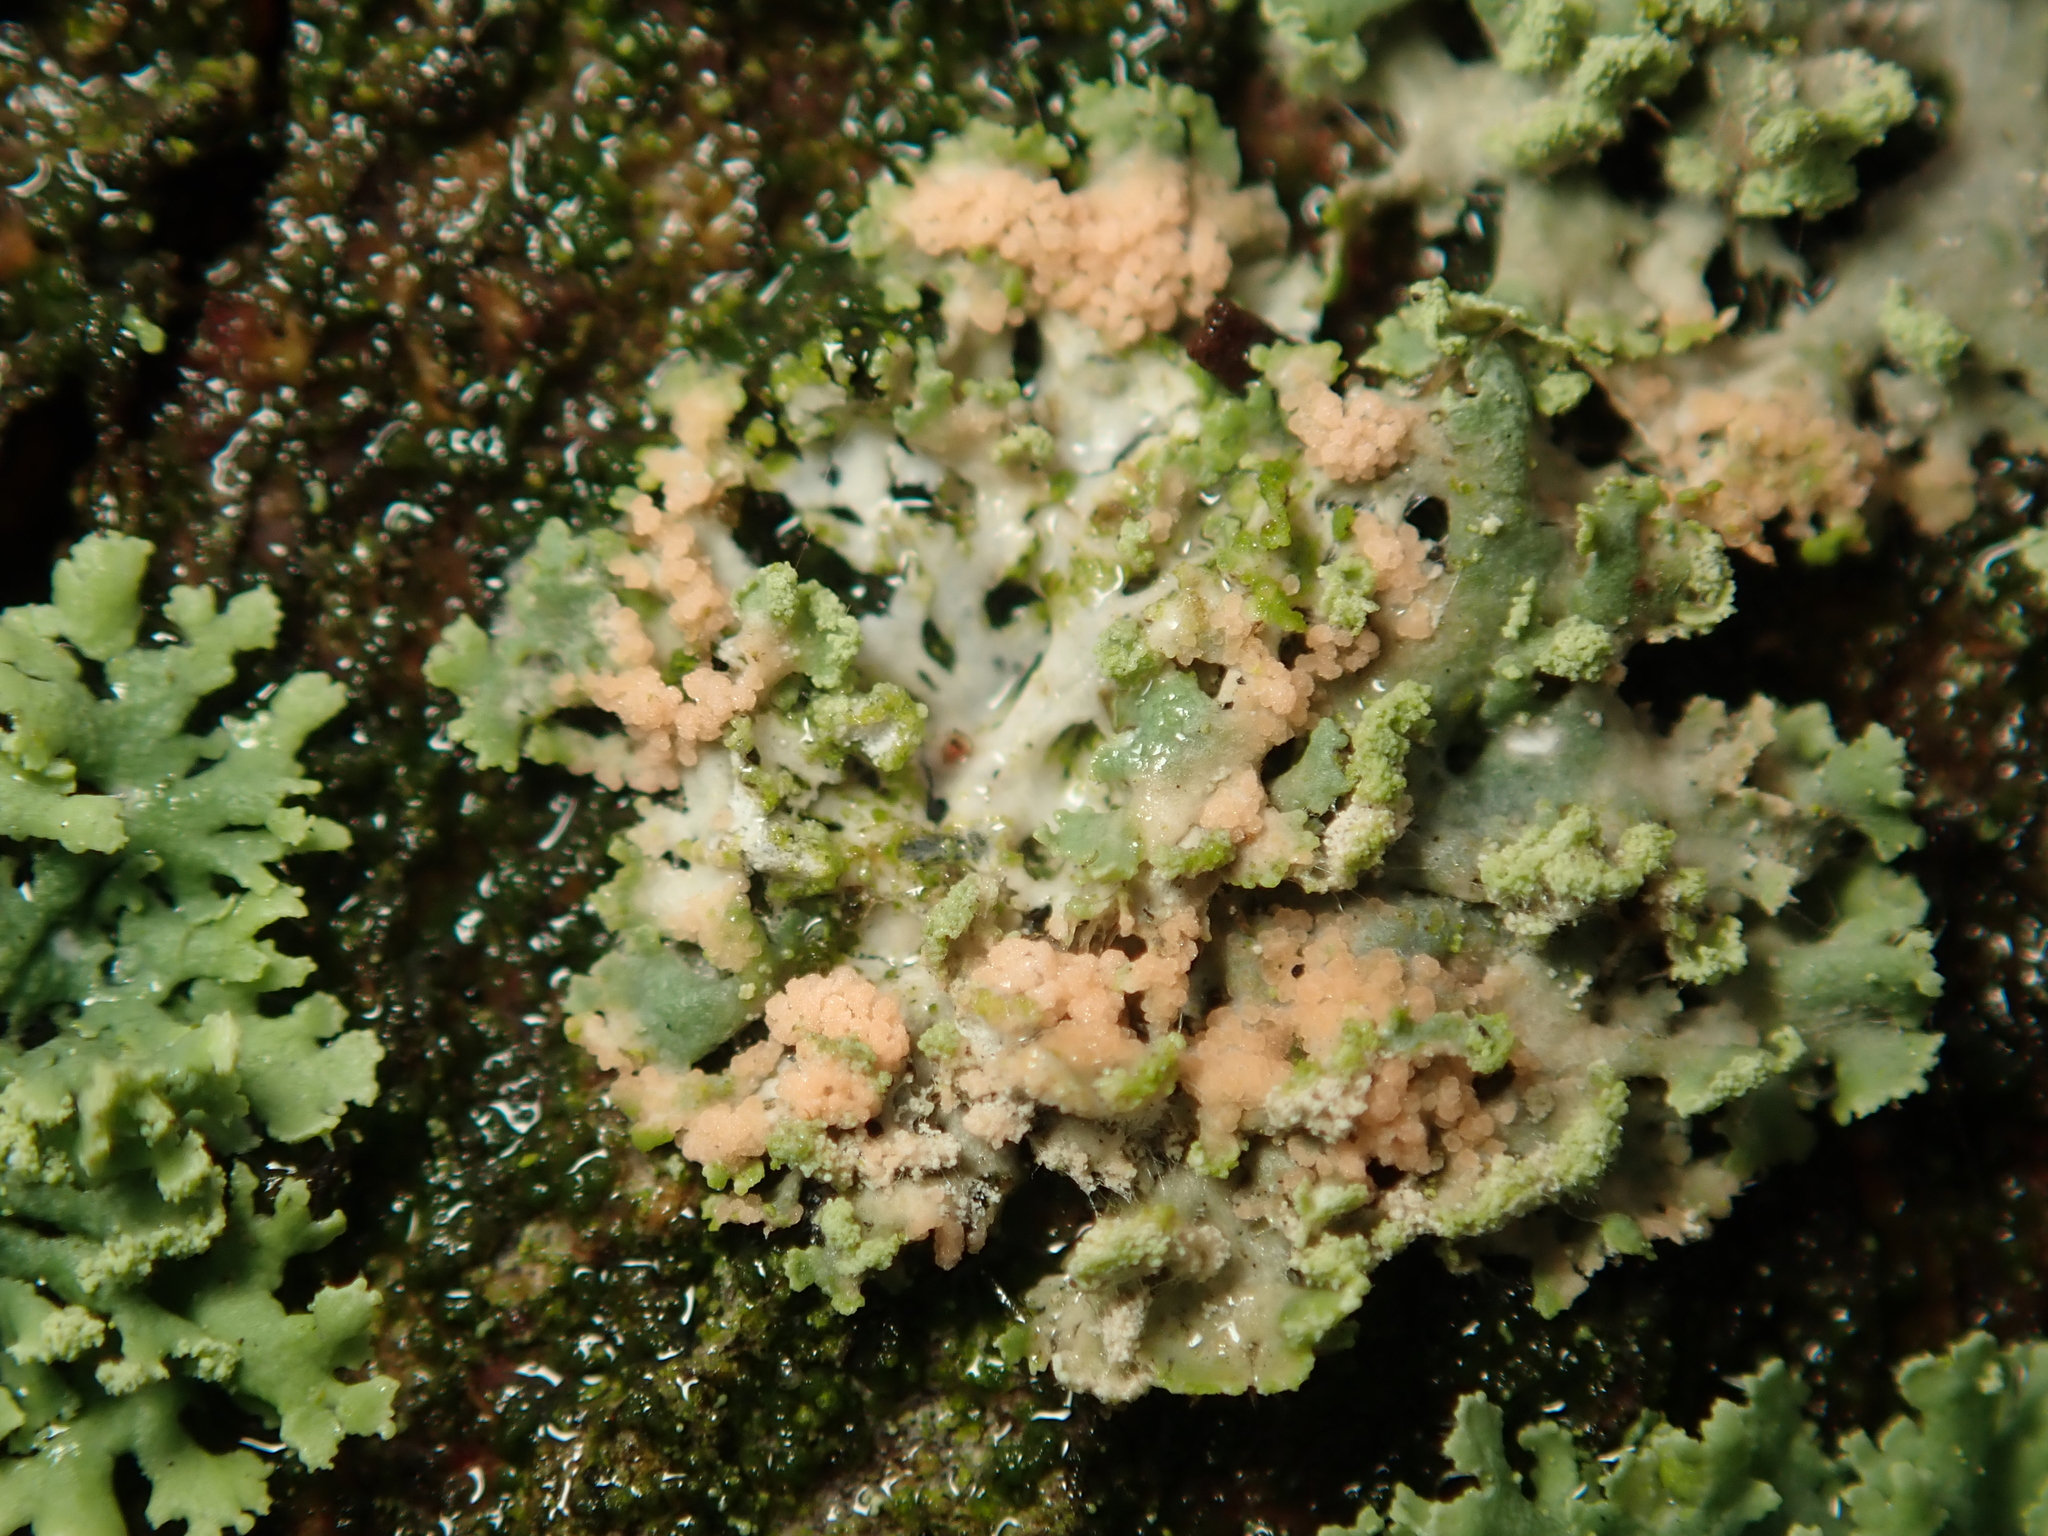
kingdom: Fungi
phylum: Basidiomycota
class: Agaricomycetes
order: Corticiales
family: Corticiaceae
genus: Erythricium
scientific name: Erythricium aurantiacum
